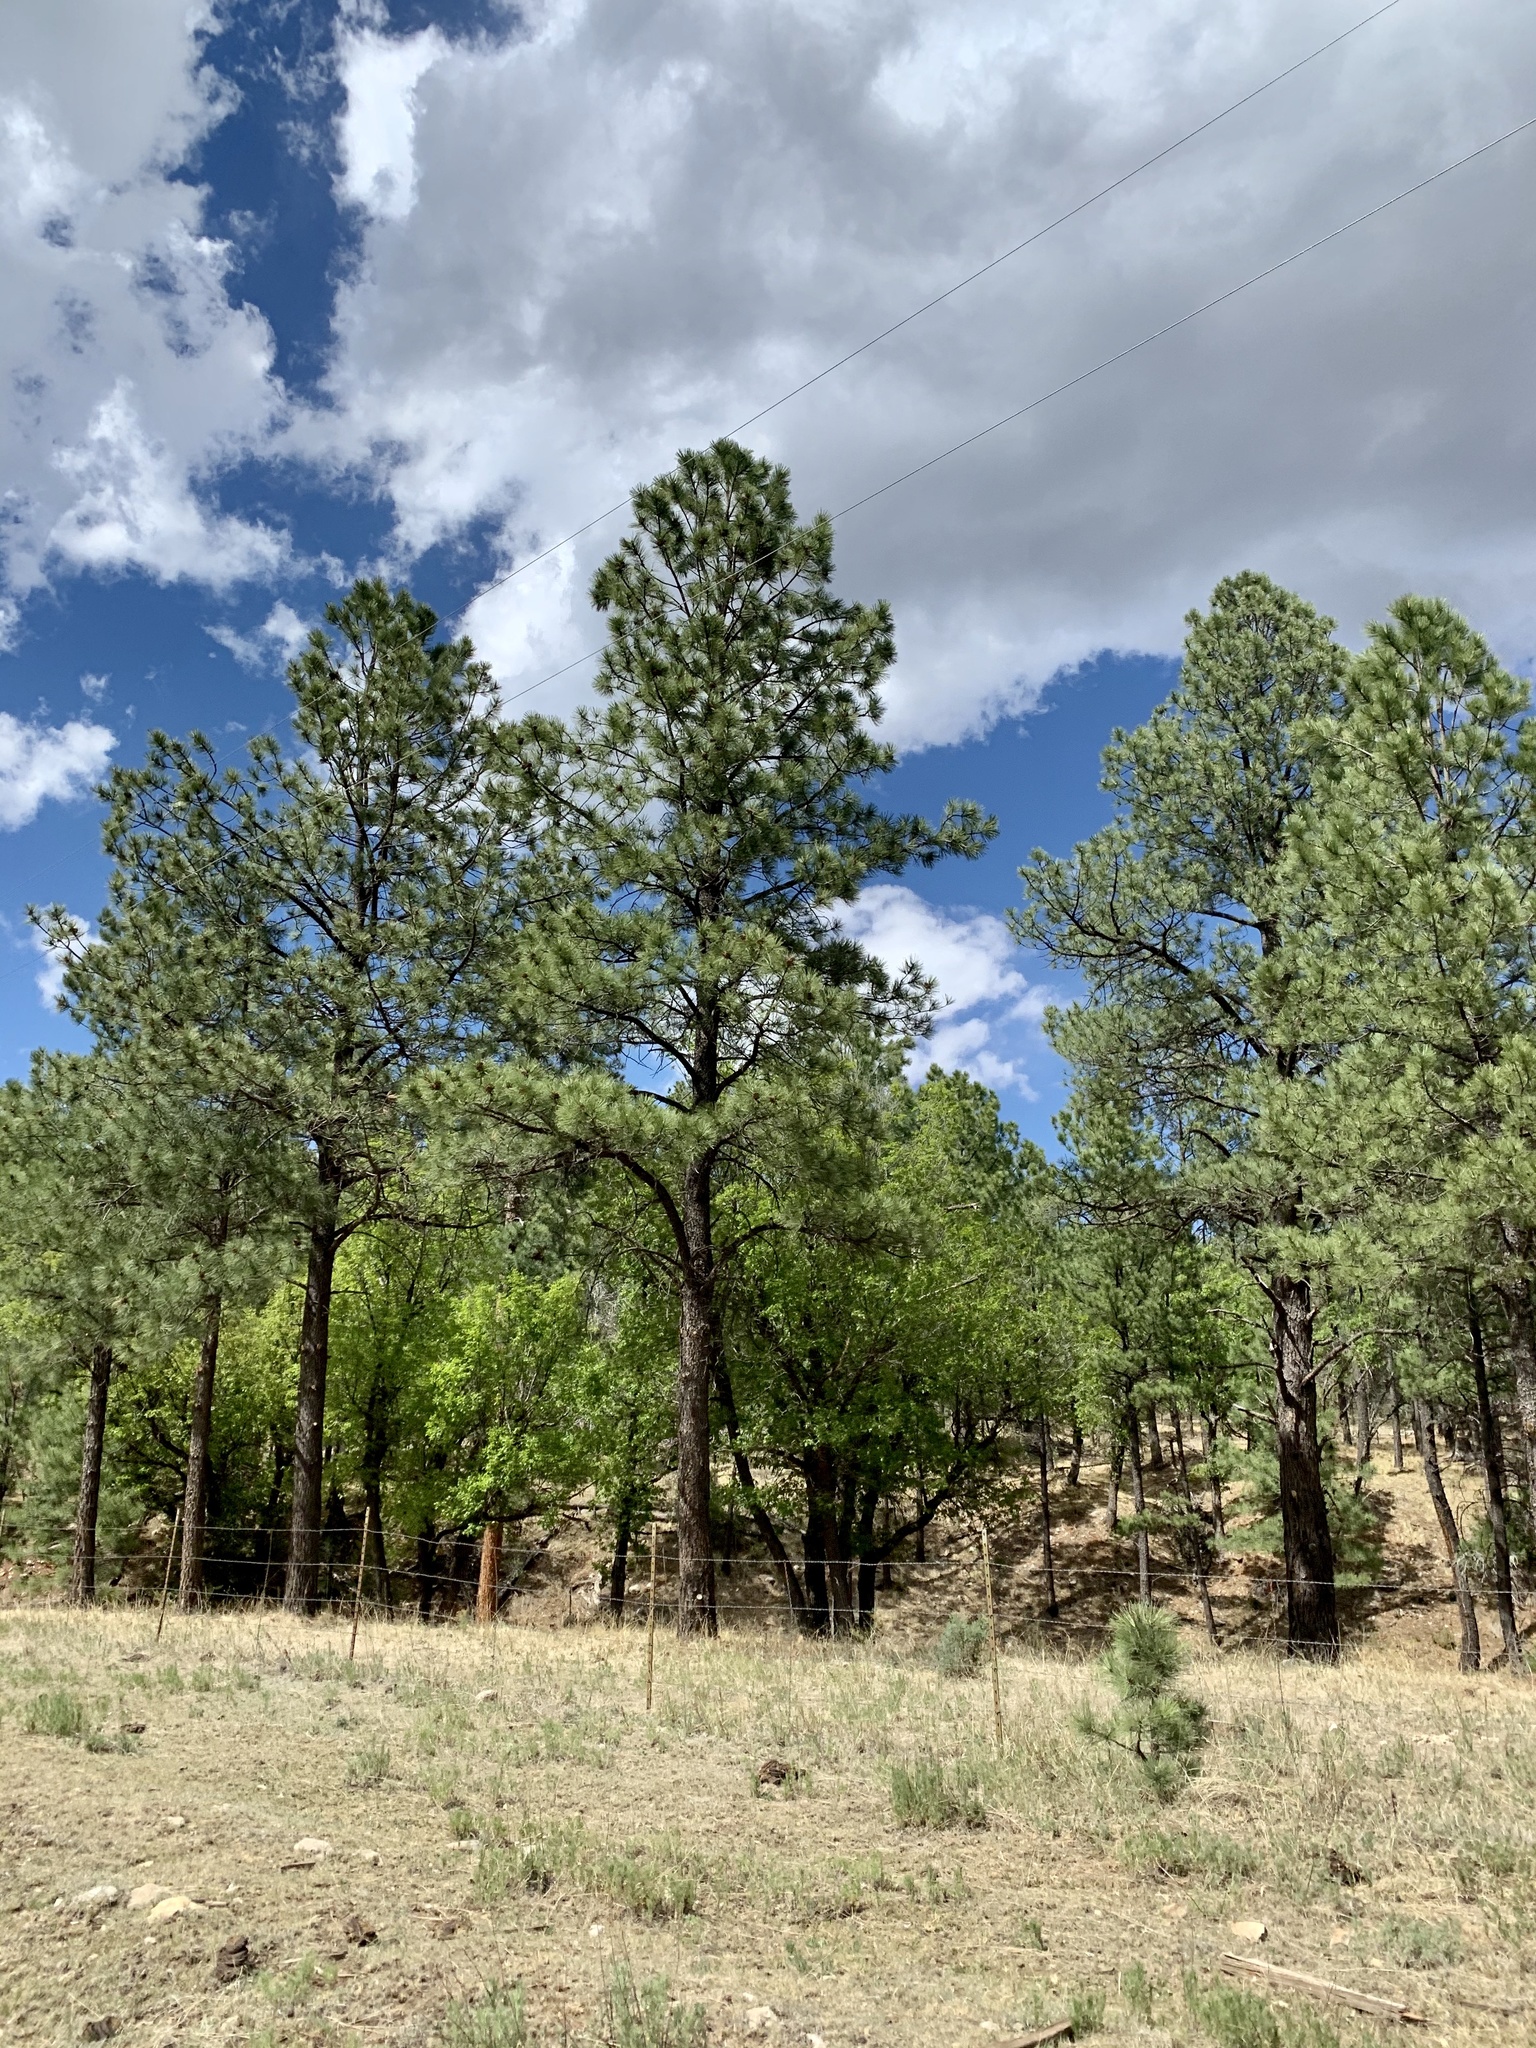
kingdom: Plantae
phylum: Tracheophyta
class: Pinopsida
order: Pinales
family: Pinaceae
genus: Pinus
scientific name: Pinus ponderosa
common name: Western yellow-pine
